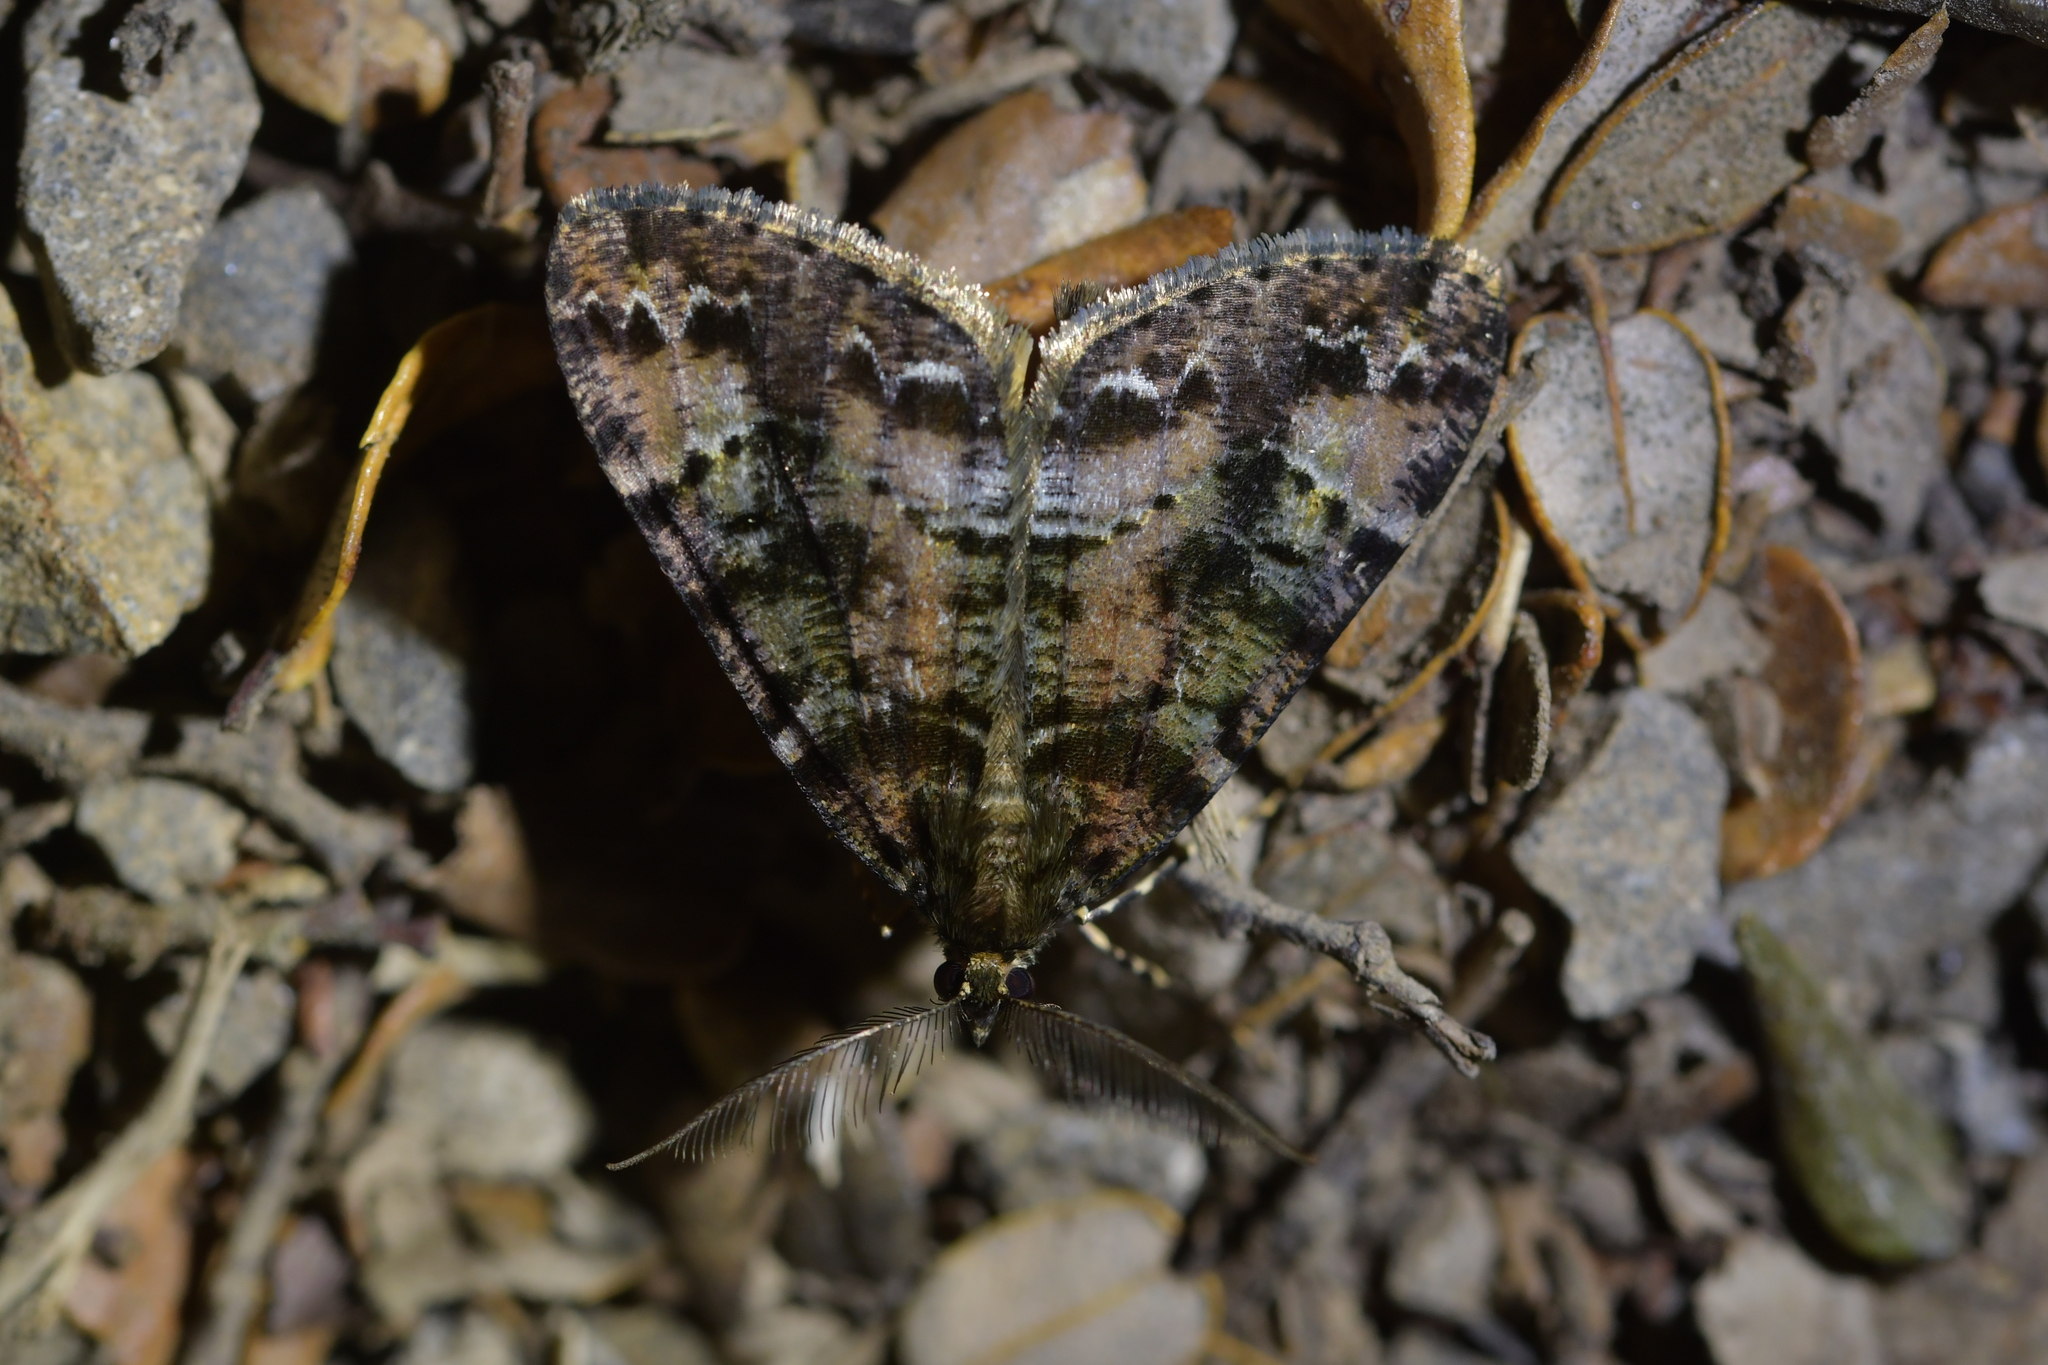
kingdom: Animalia
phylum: Arthropoda
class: Insecta
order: Lepidoptera
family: Geometridae
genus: Pseudocoremia
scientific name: Pseudocoremia productata
